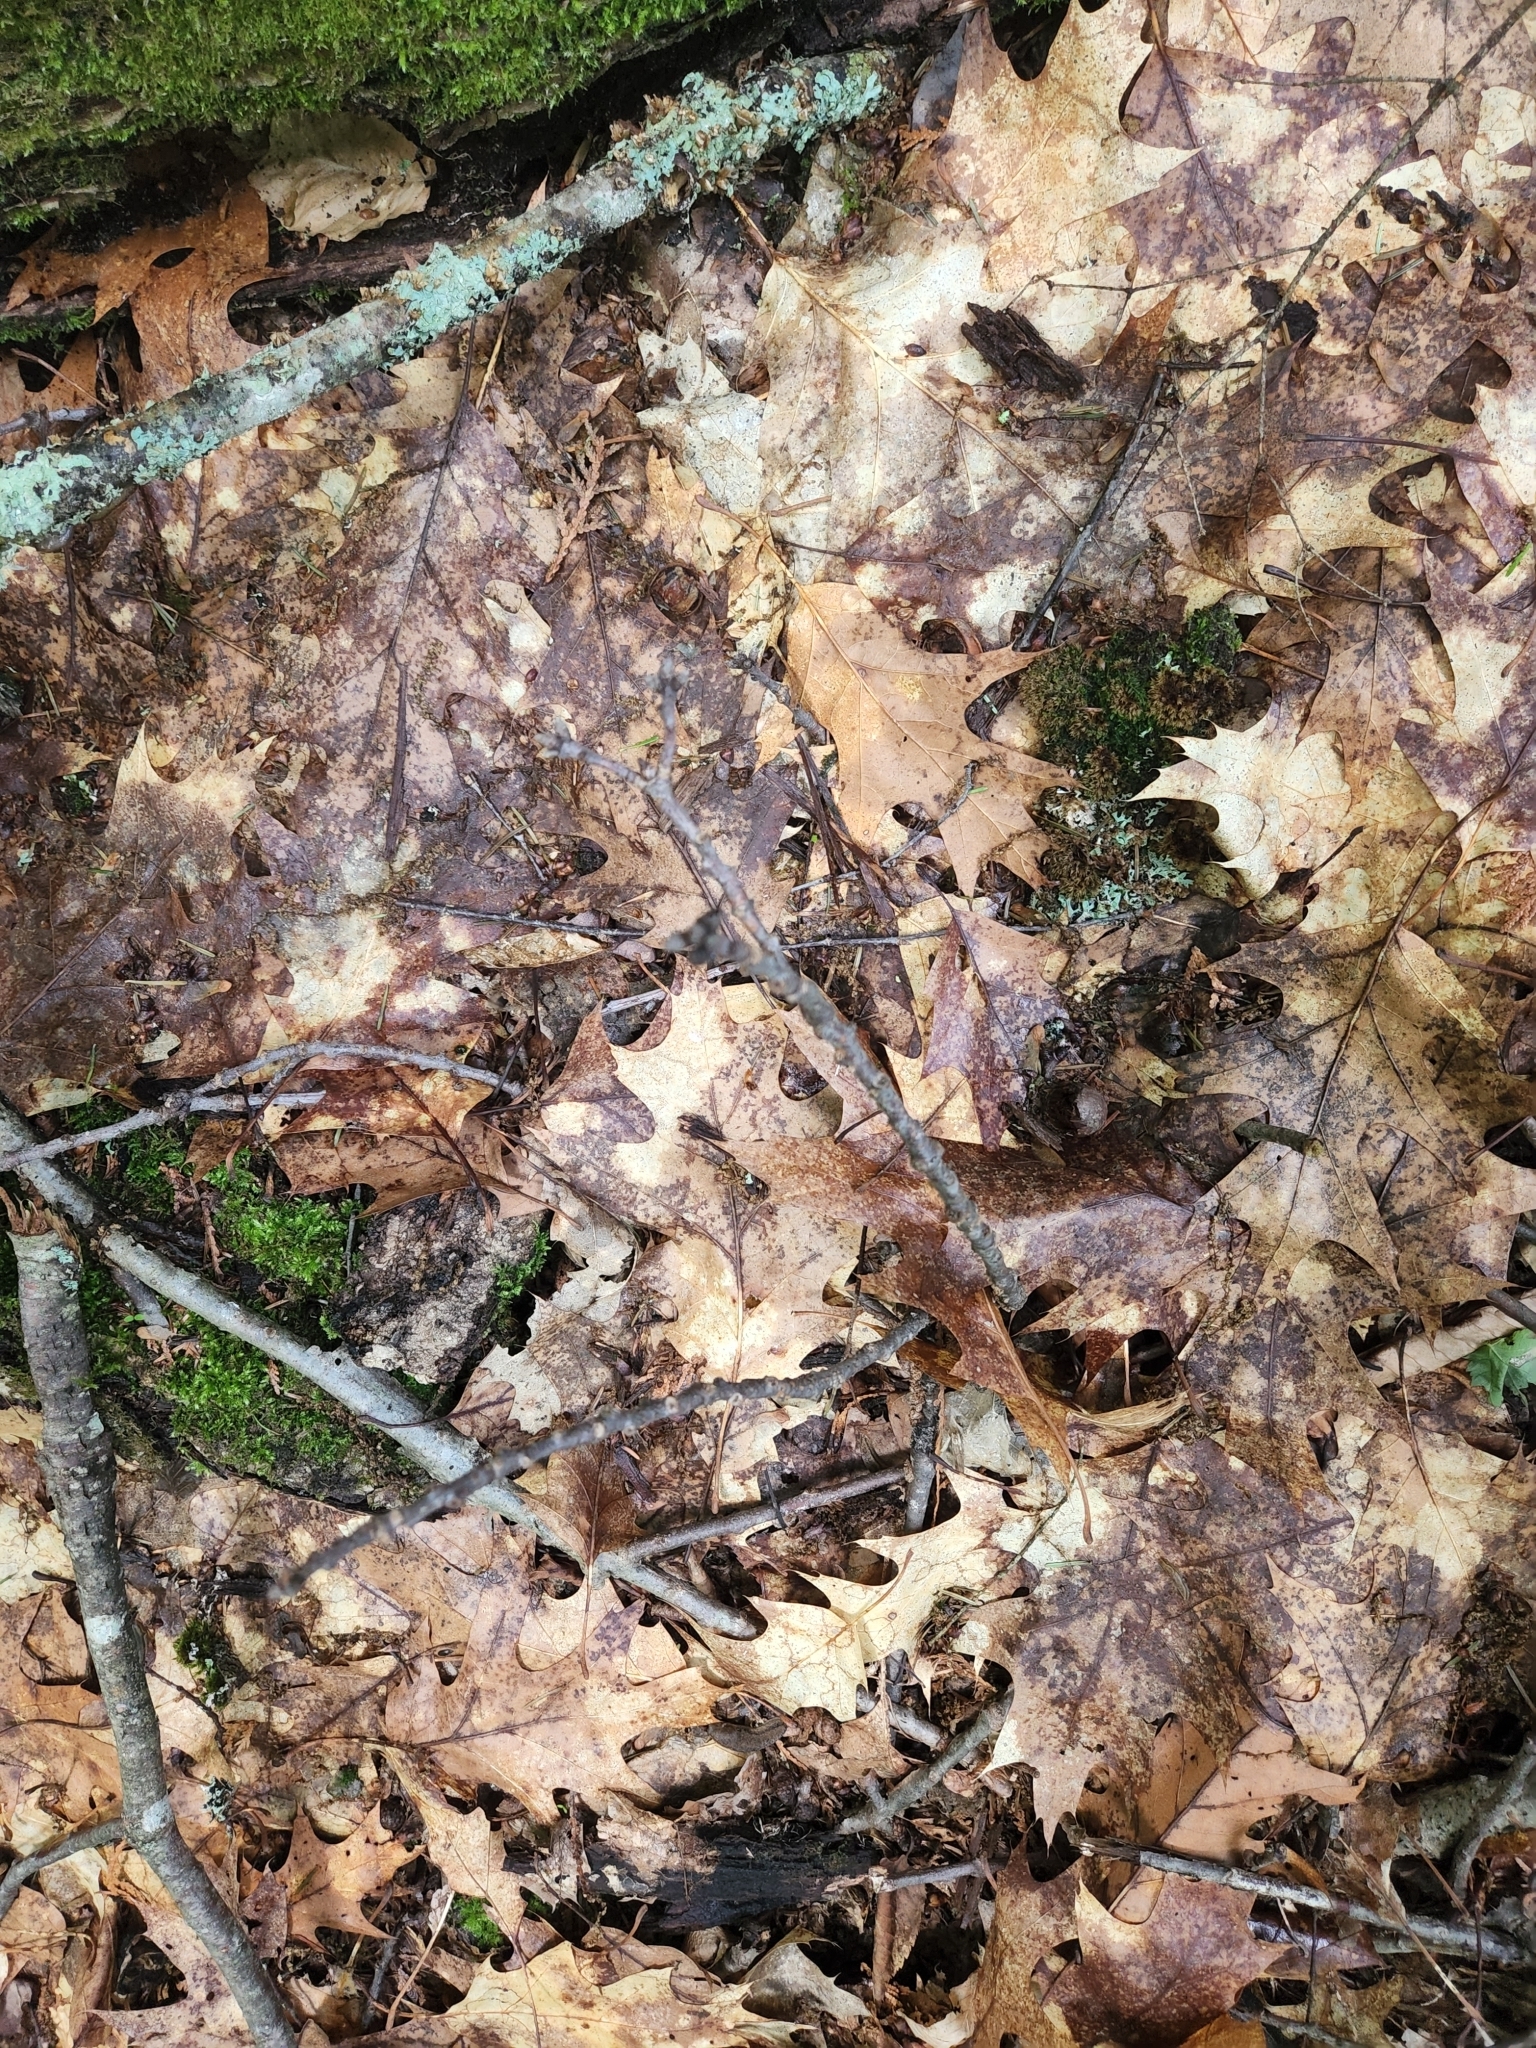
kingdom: Plantae
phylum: Tracheophyta
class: Magnoliopsida
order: Fagales
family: Fagaceae
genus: Quercus
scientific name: Quercus rubra
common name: Red oak
